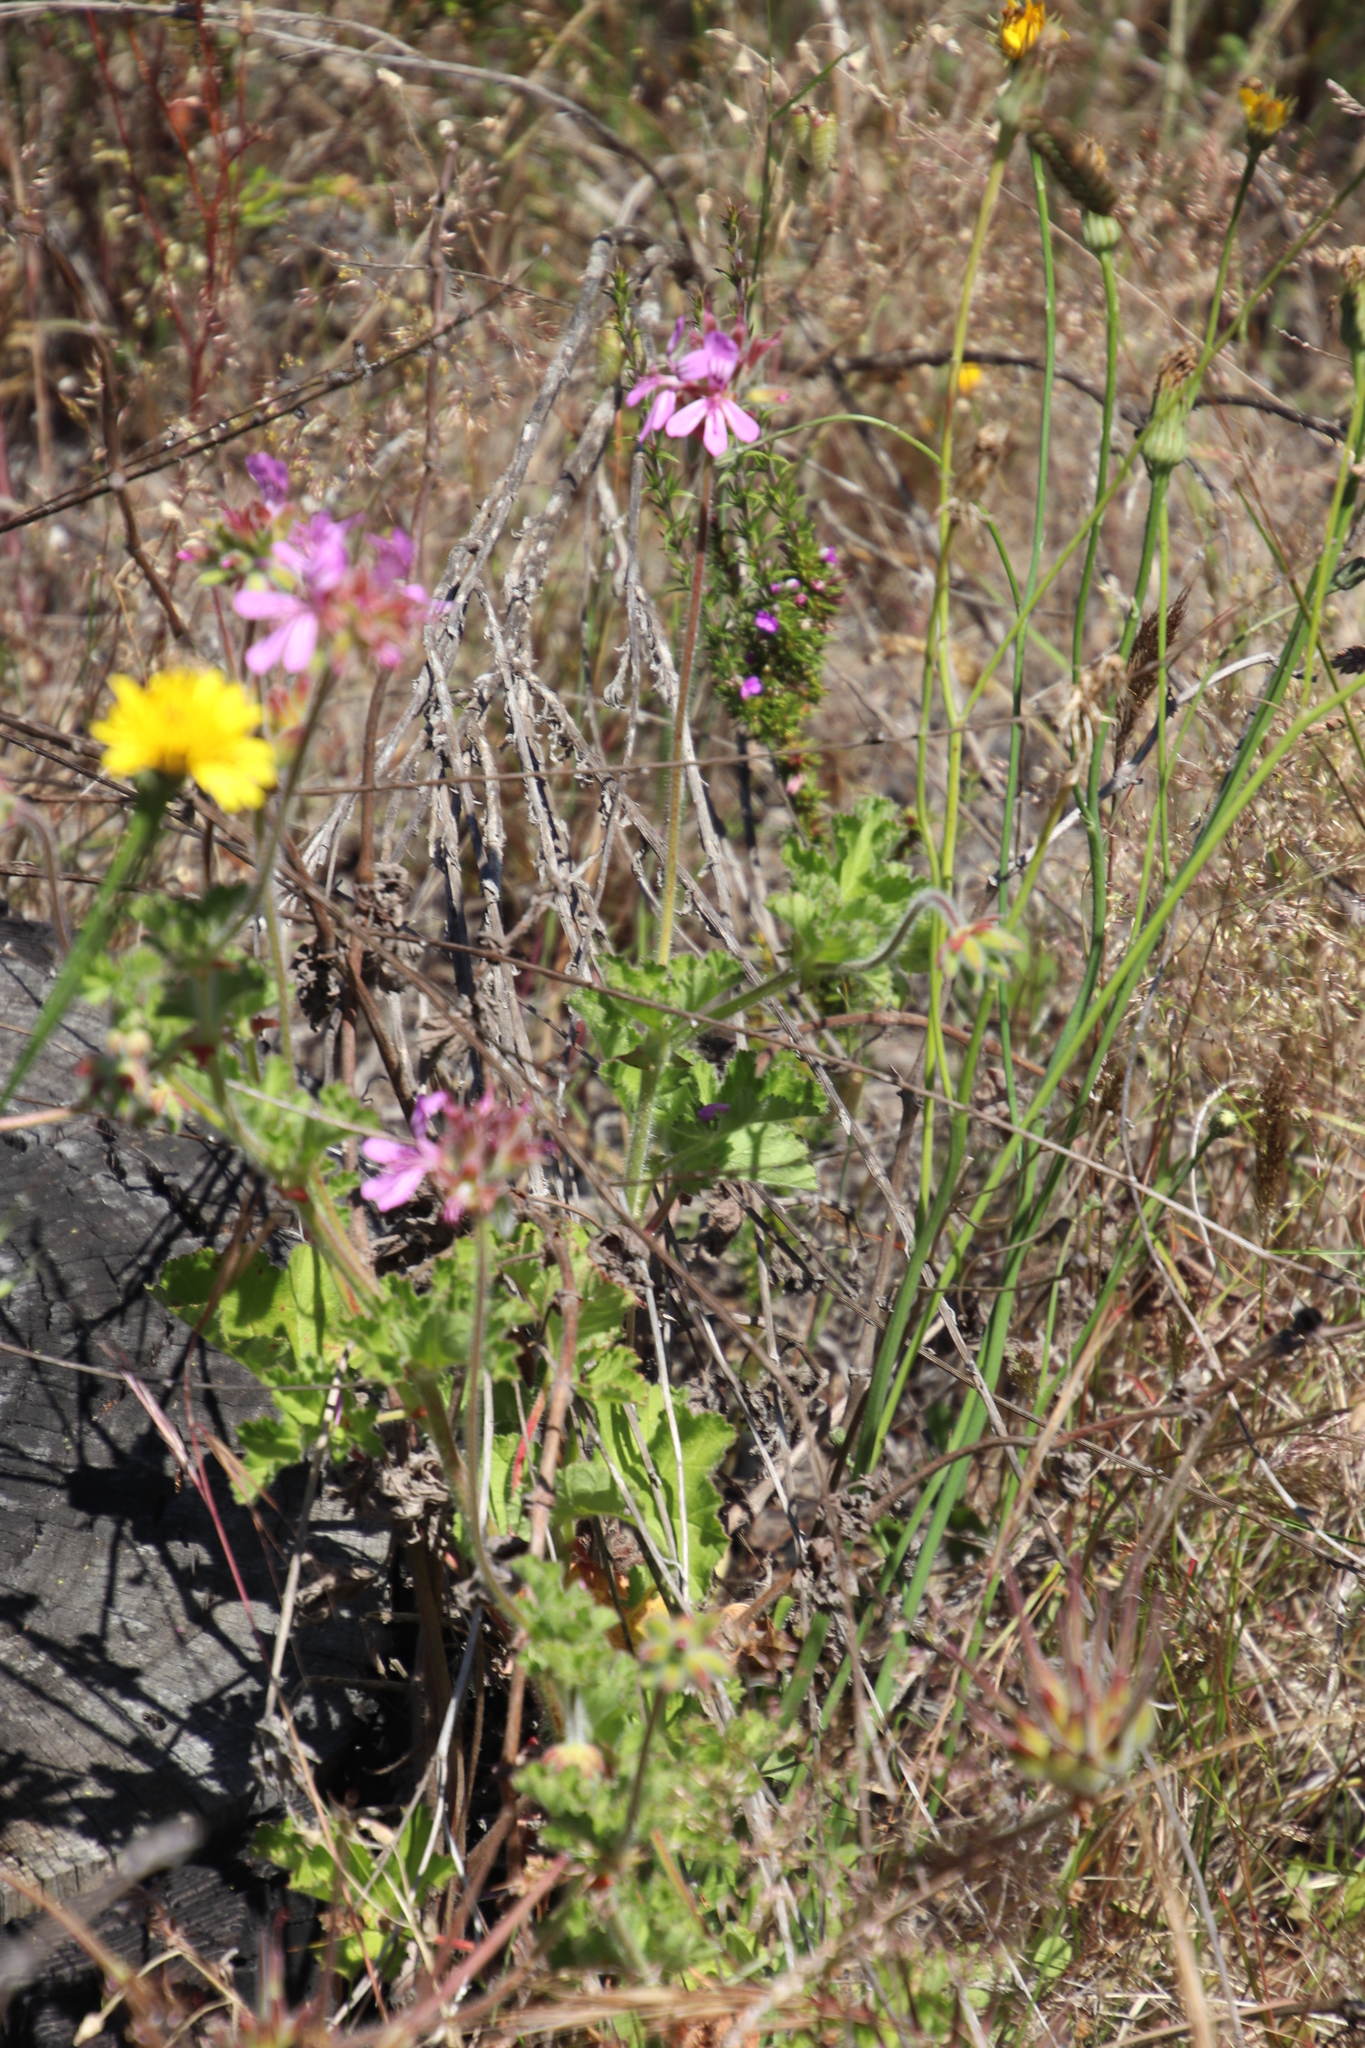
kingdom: Plantae
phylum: Tracheophyta
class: Magnoliopsida
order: Geraniales
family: Geraniaceae
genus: Pelargonium
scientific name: Pelargonium capitatum
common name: Rose scented geranium
